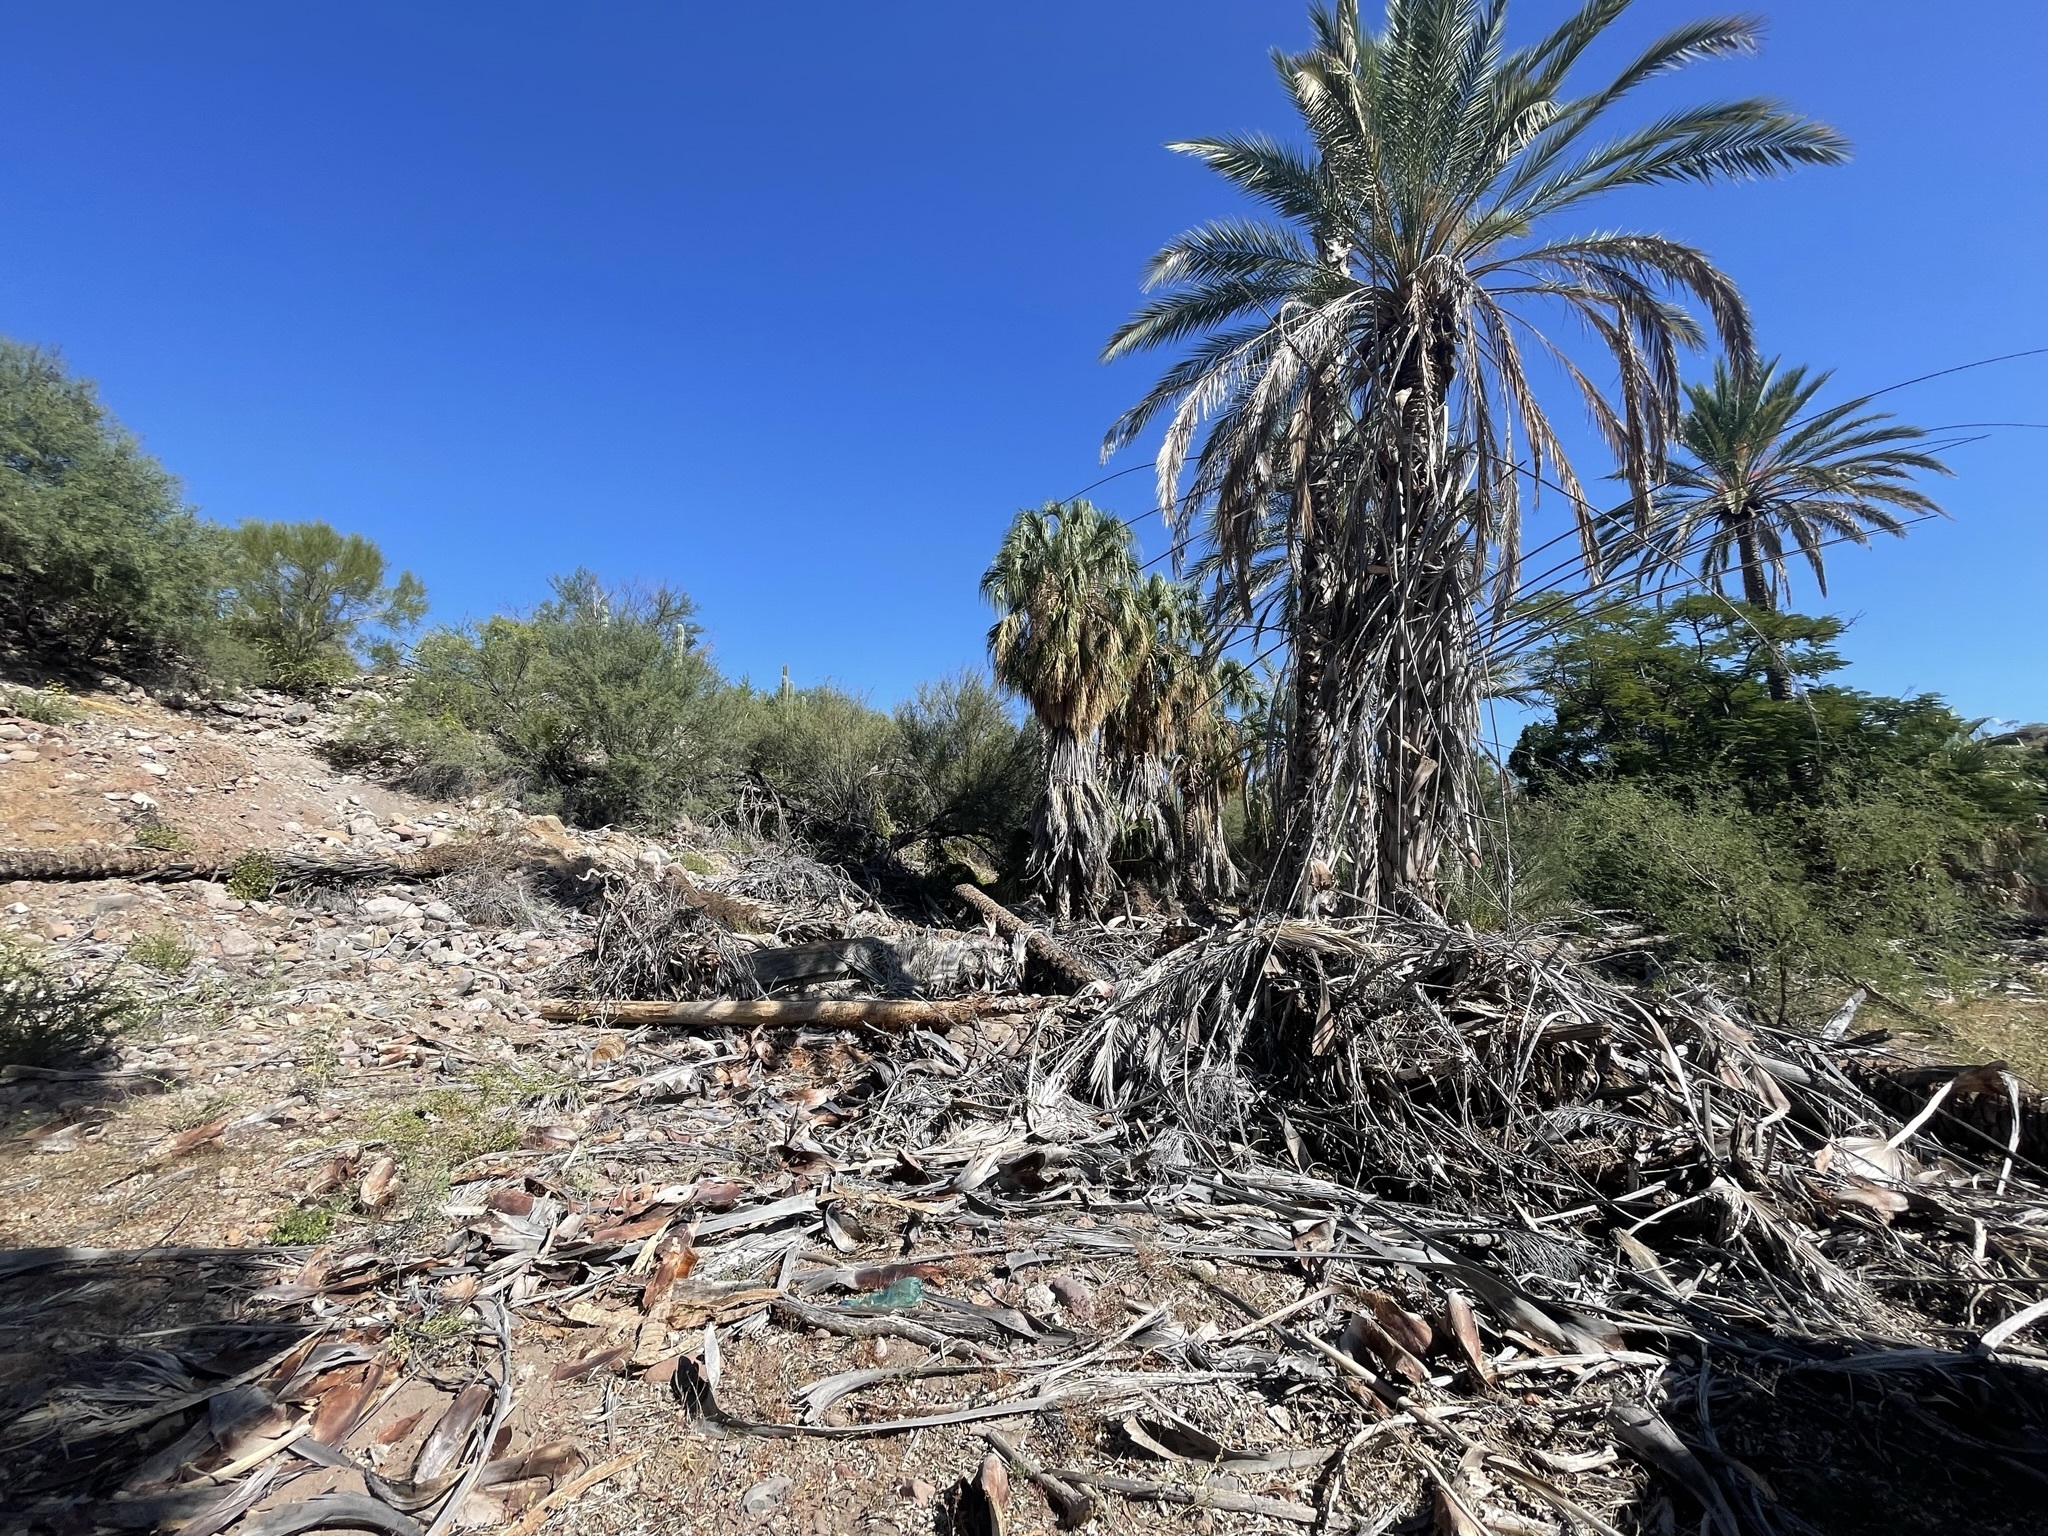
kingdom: Plantae
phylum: Tracheophyta
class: Liliopsida
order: Arecales
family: Arecaceae
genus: Washingtonia
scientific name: Washingtonia robusta
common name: Mexican fan palm
